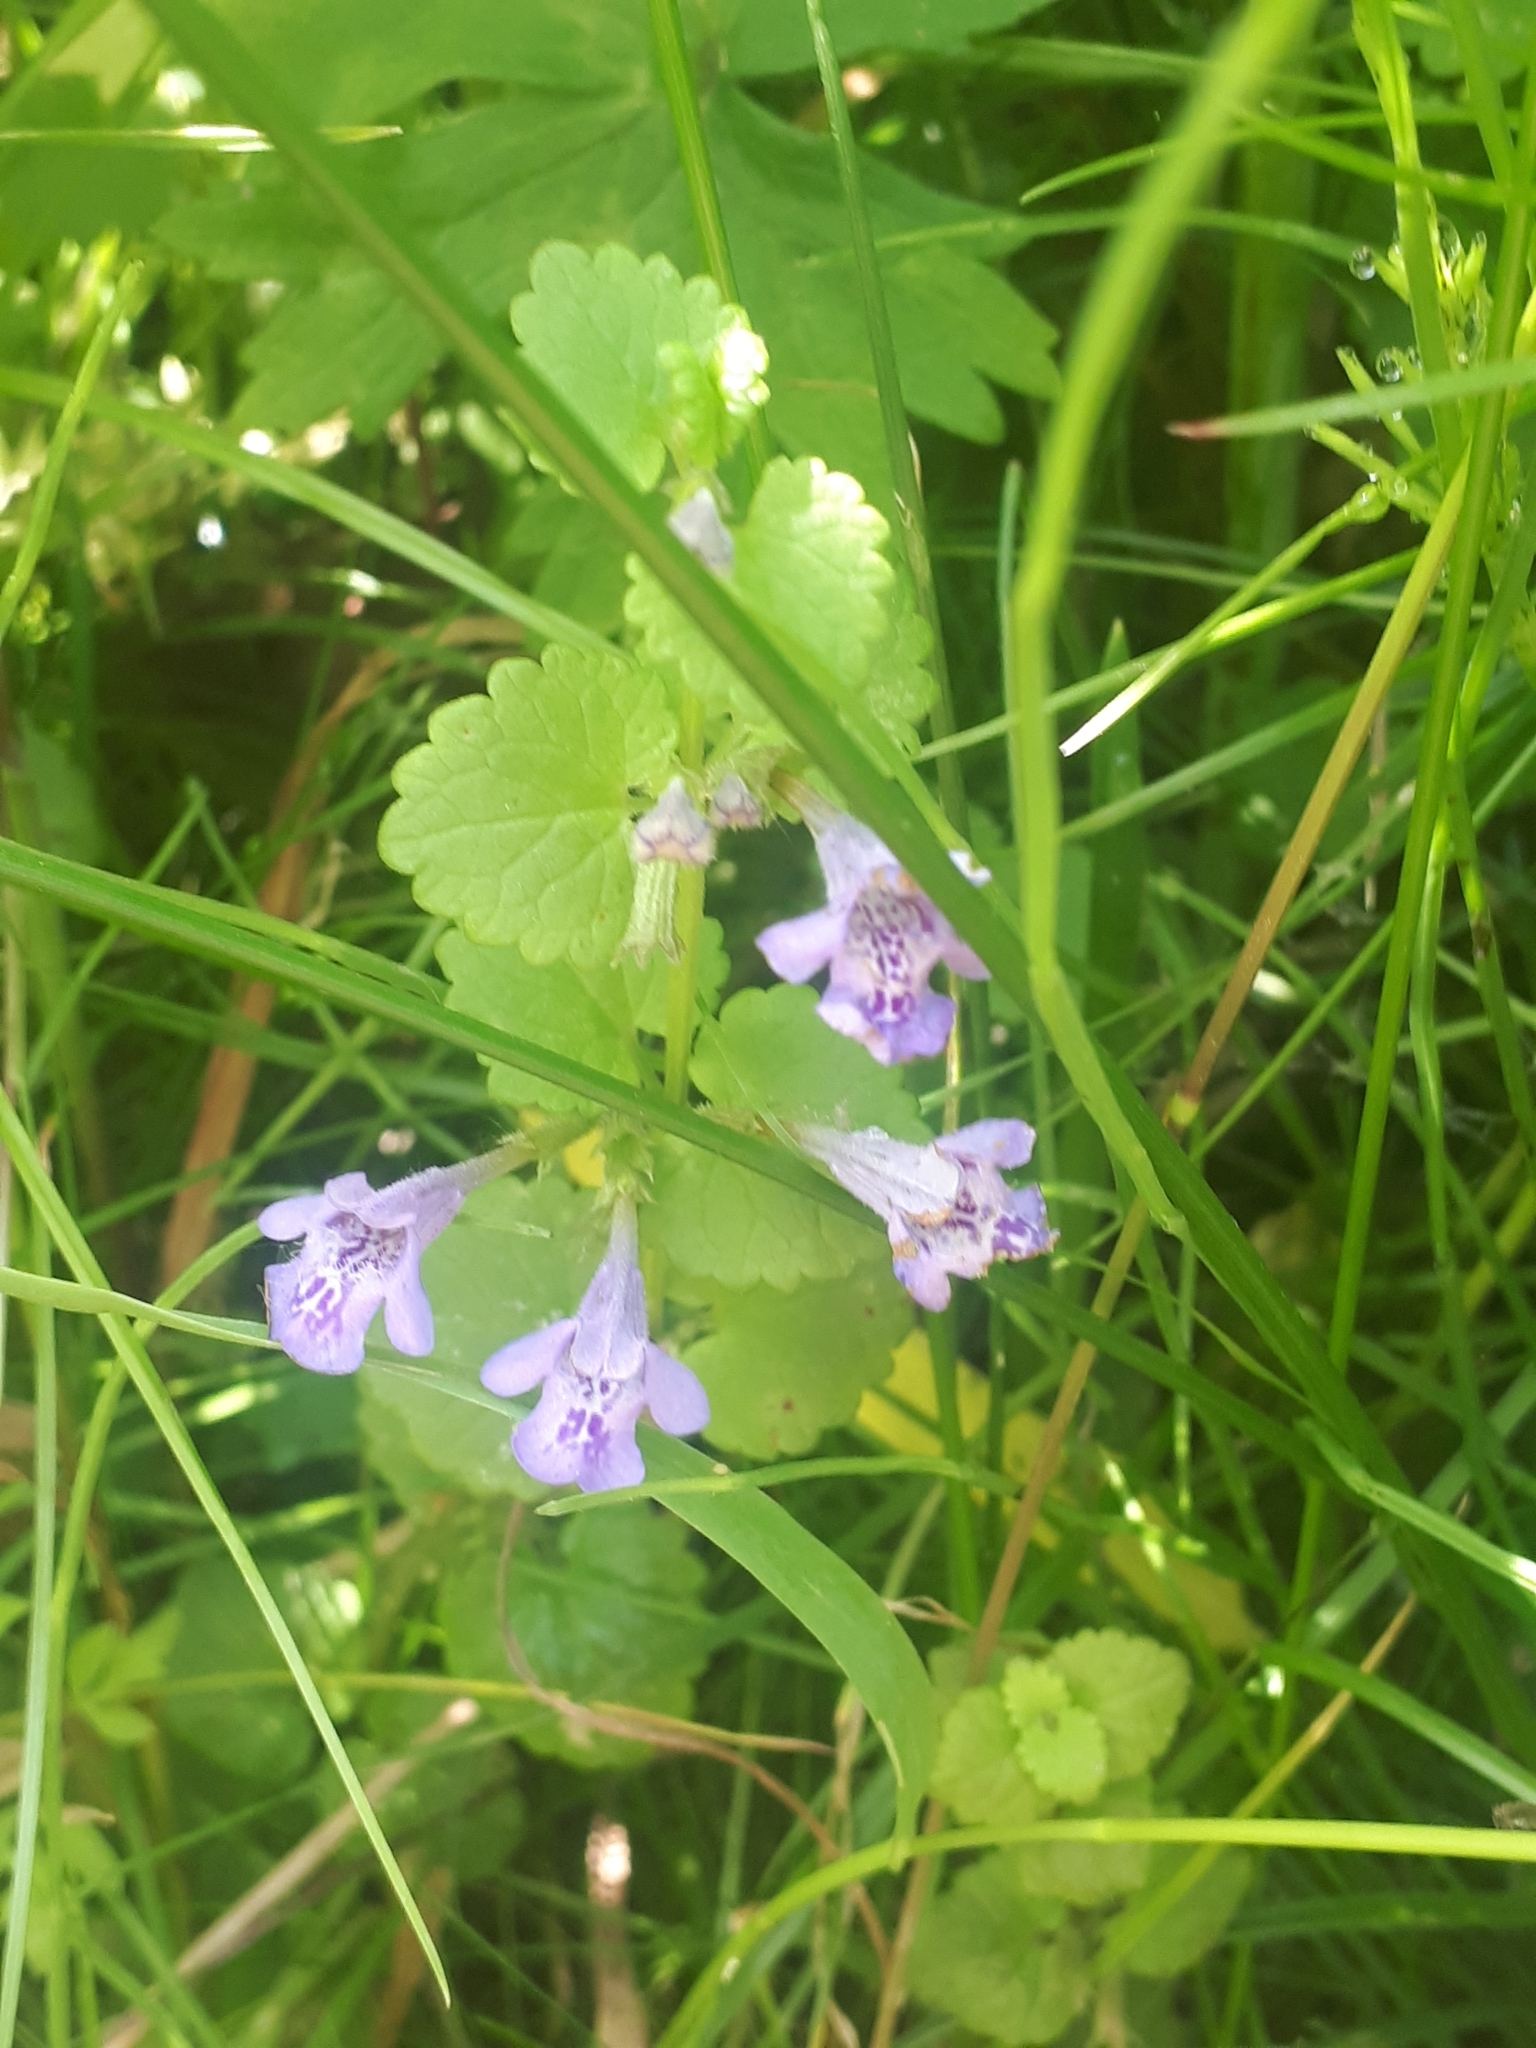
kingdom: Plantae
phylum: Tracheophyta
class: Magnoliopsida
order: Lamiales
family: Lamiaceae
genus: Glechoma
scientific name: Glechoma hederacea
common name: Ground ivy
